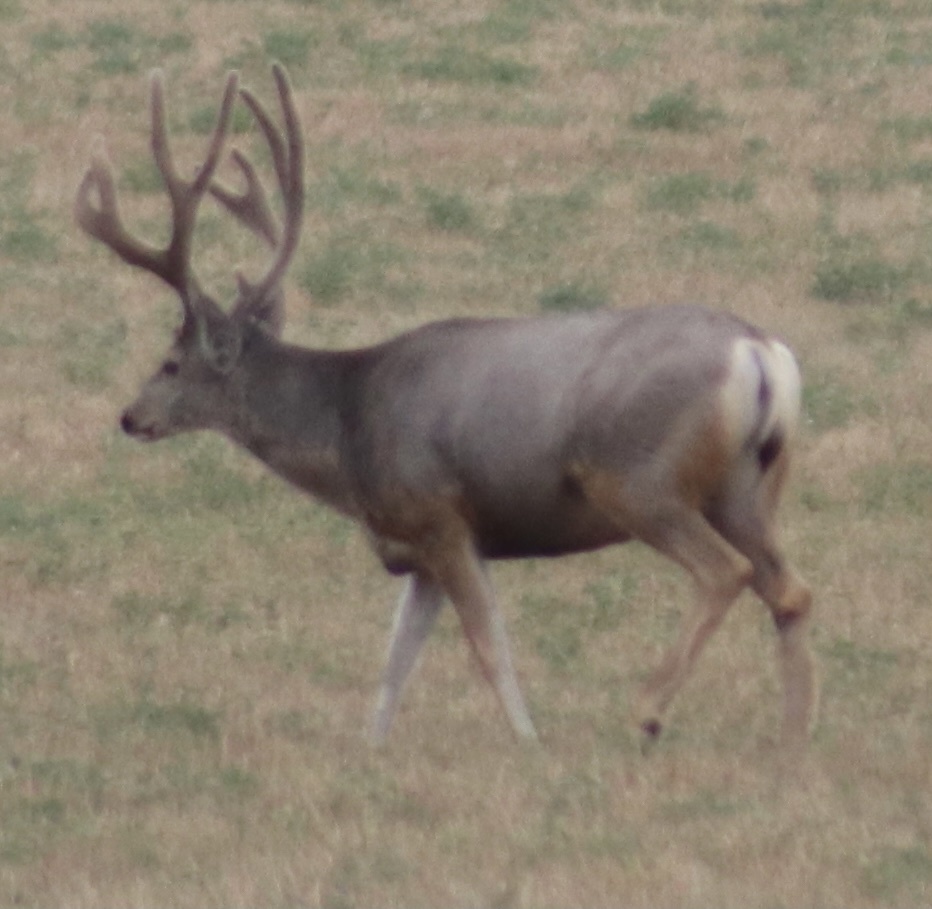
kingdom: Animalia
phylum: Chordata
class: Mammalia
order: Artiodactyla
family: Cervidae
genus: Odocoileus
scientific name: Odocoileus hemionus
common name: Mule deer
